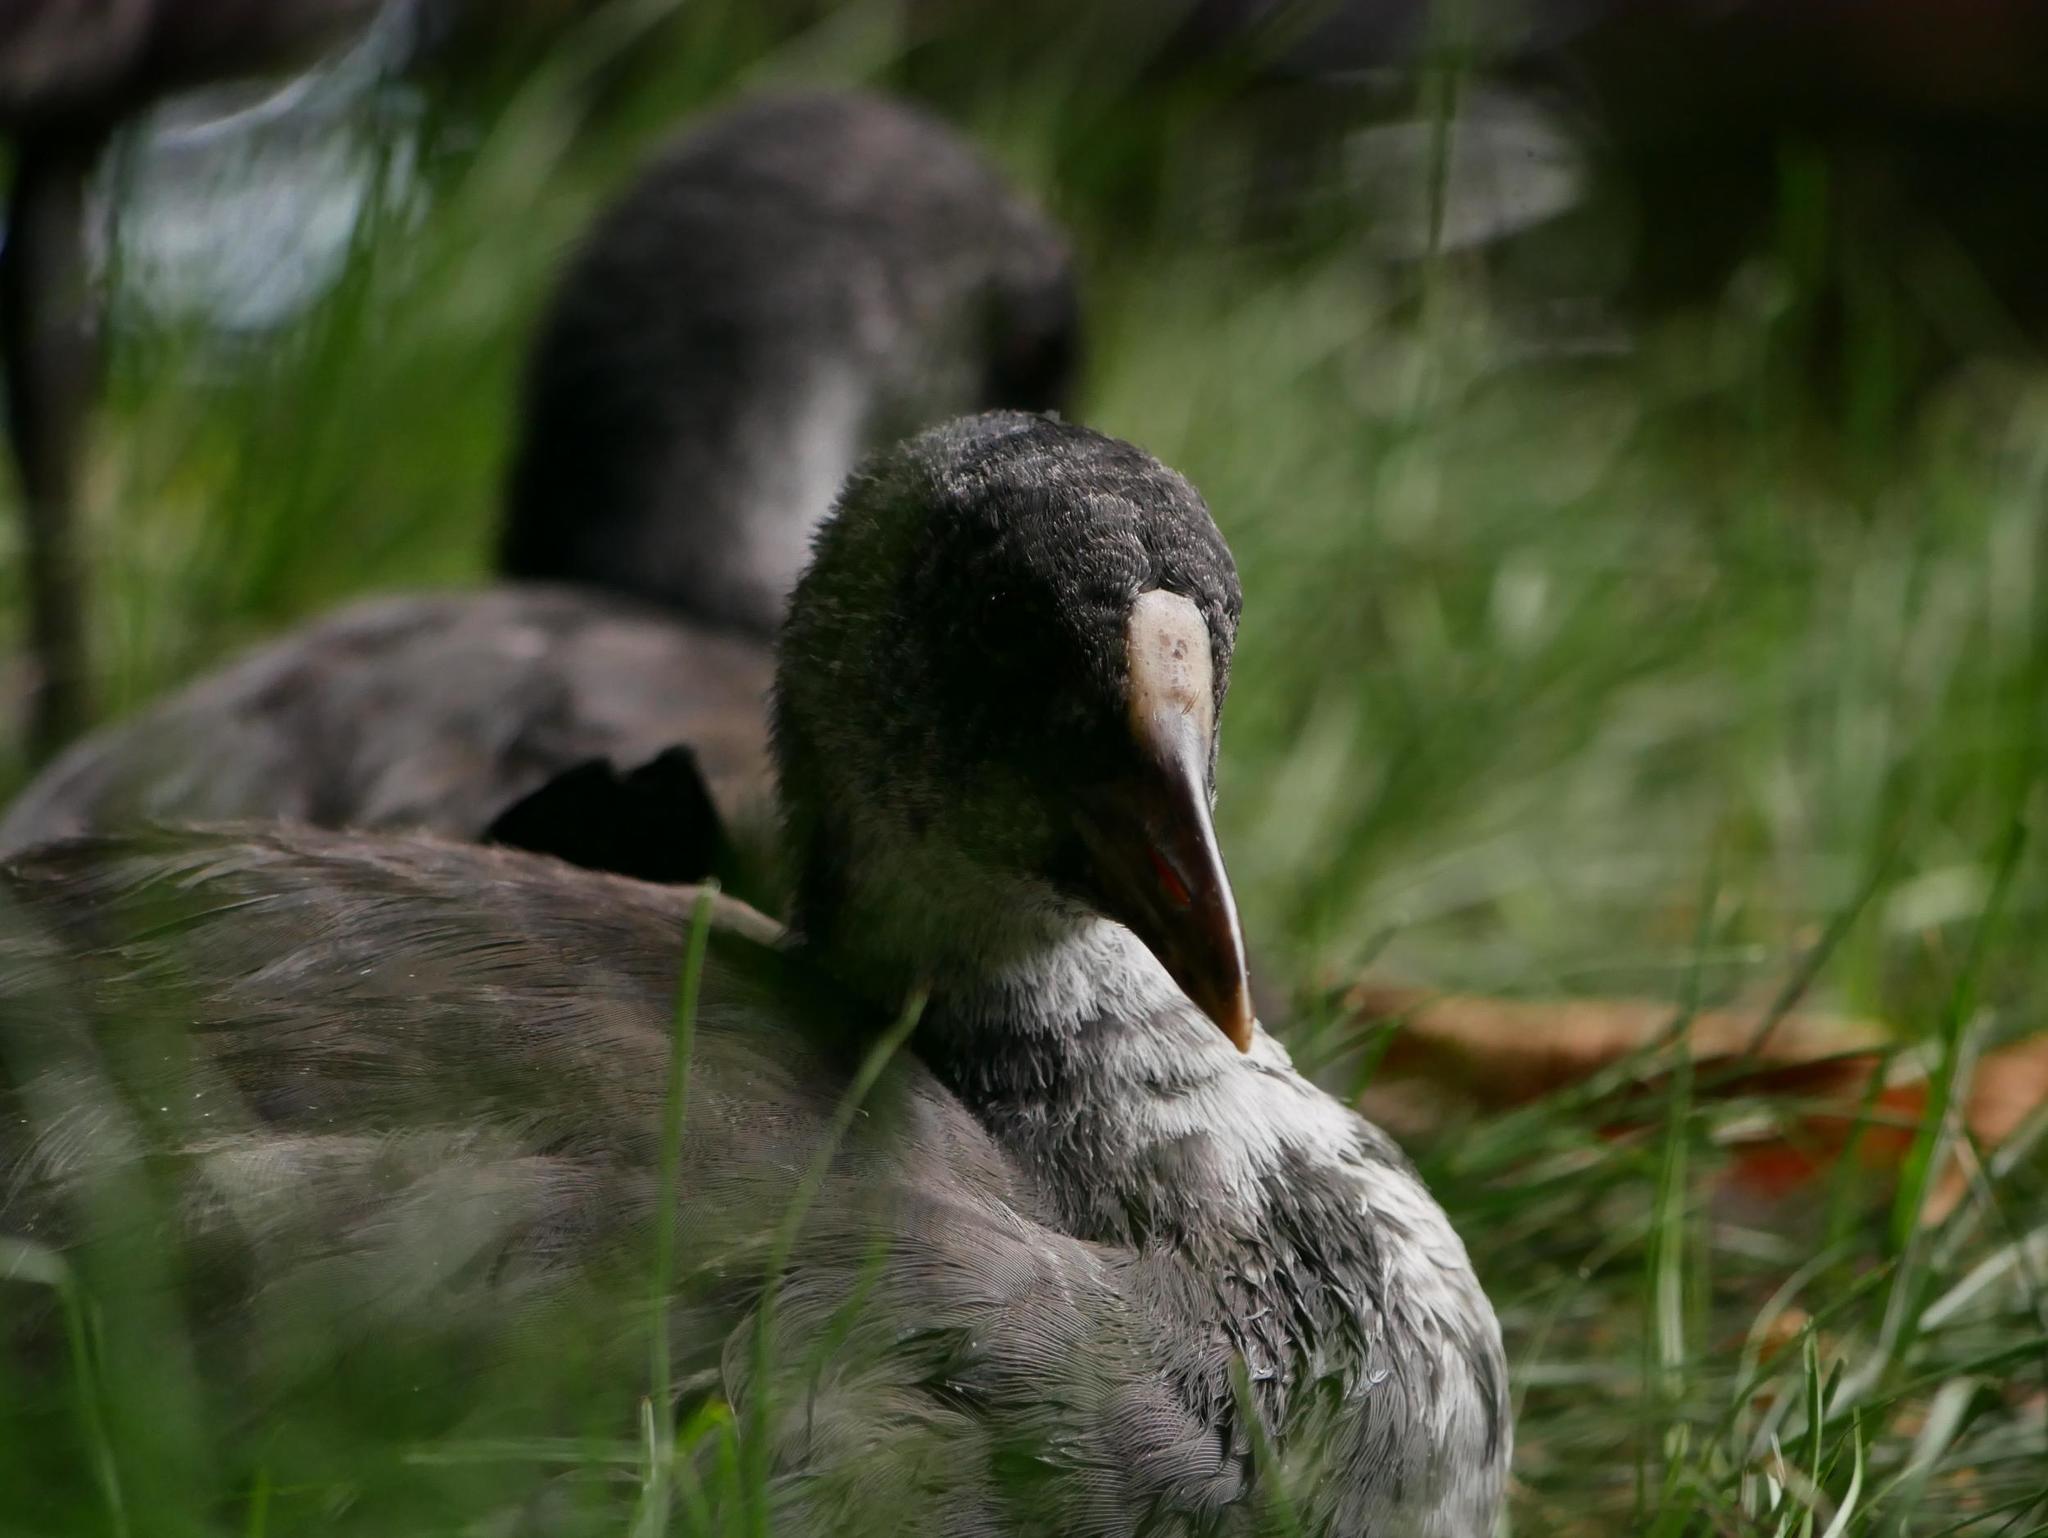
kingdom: Animalia
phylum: Chordata
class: Aves
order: Gruiformes
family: Rallidae
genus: Fulica
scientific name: Fulica atra
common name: Eurasian coot
